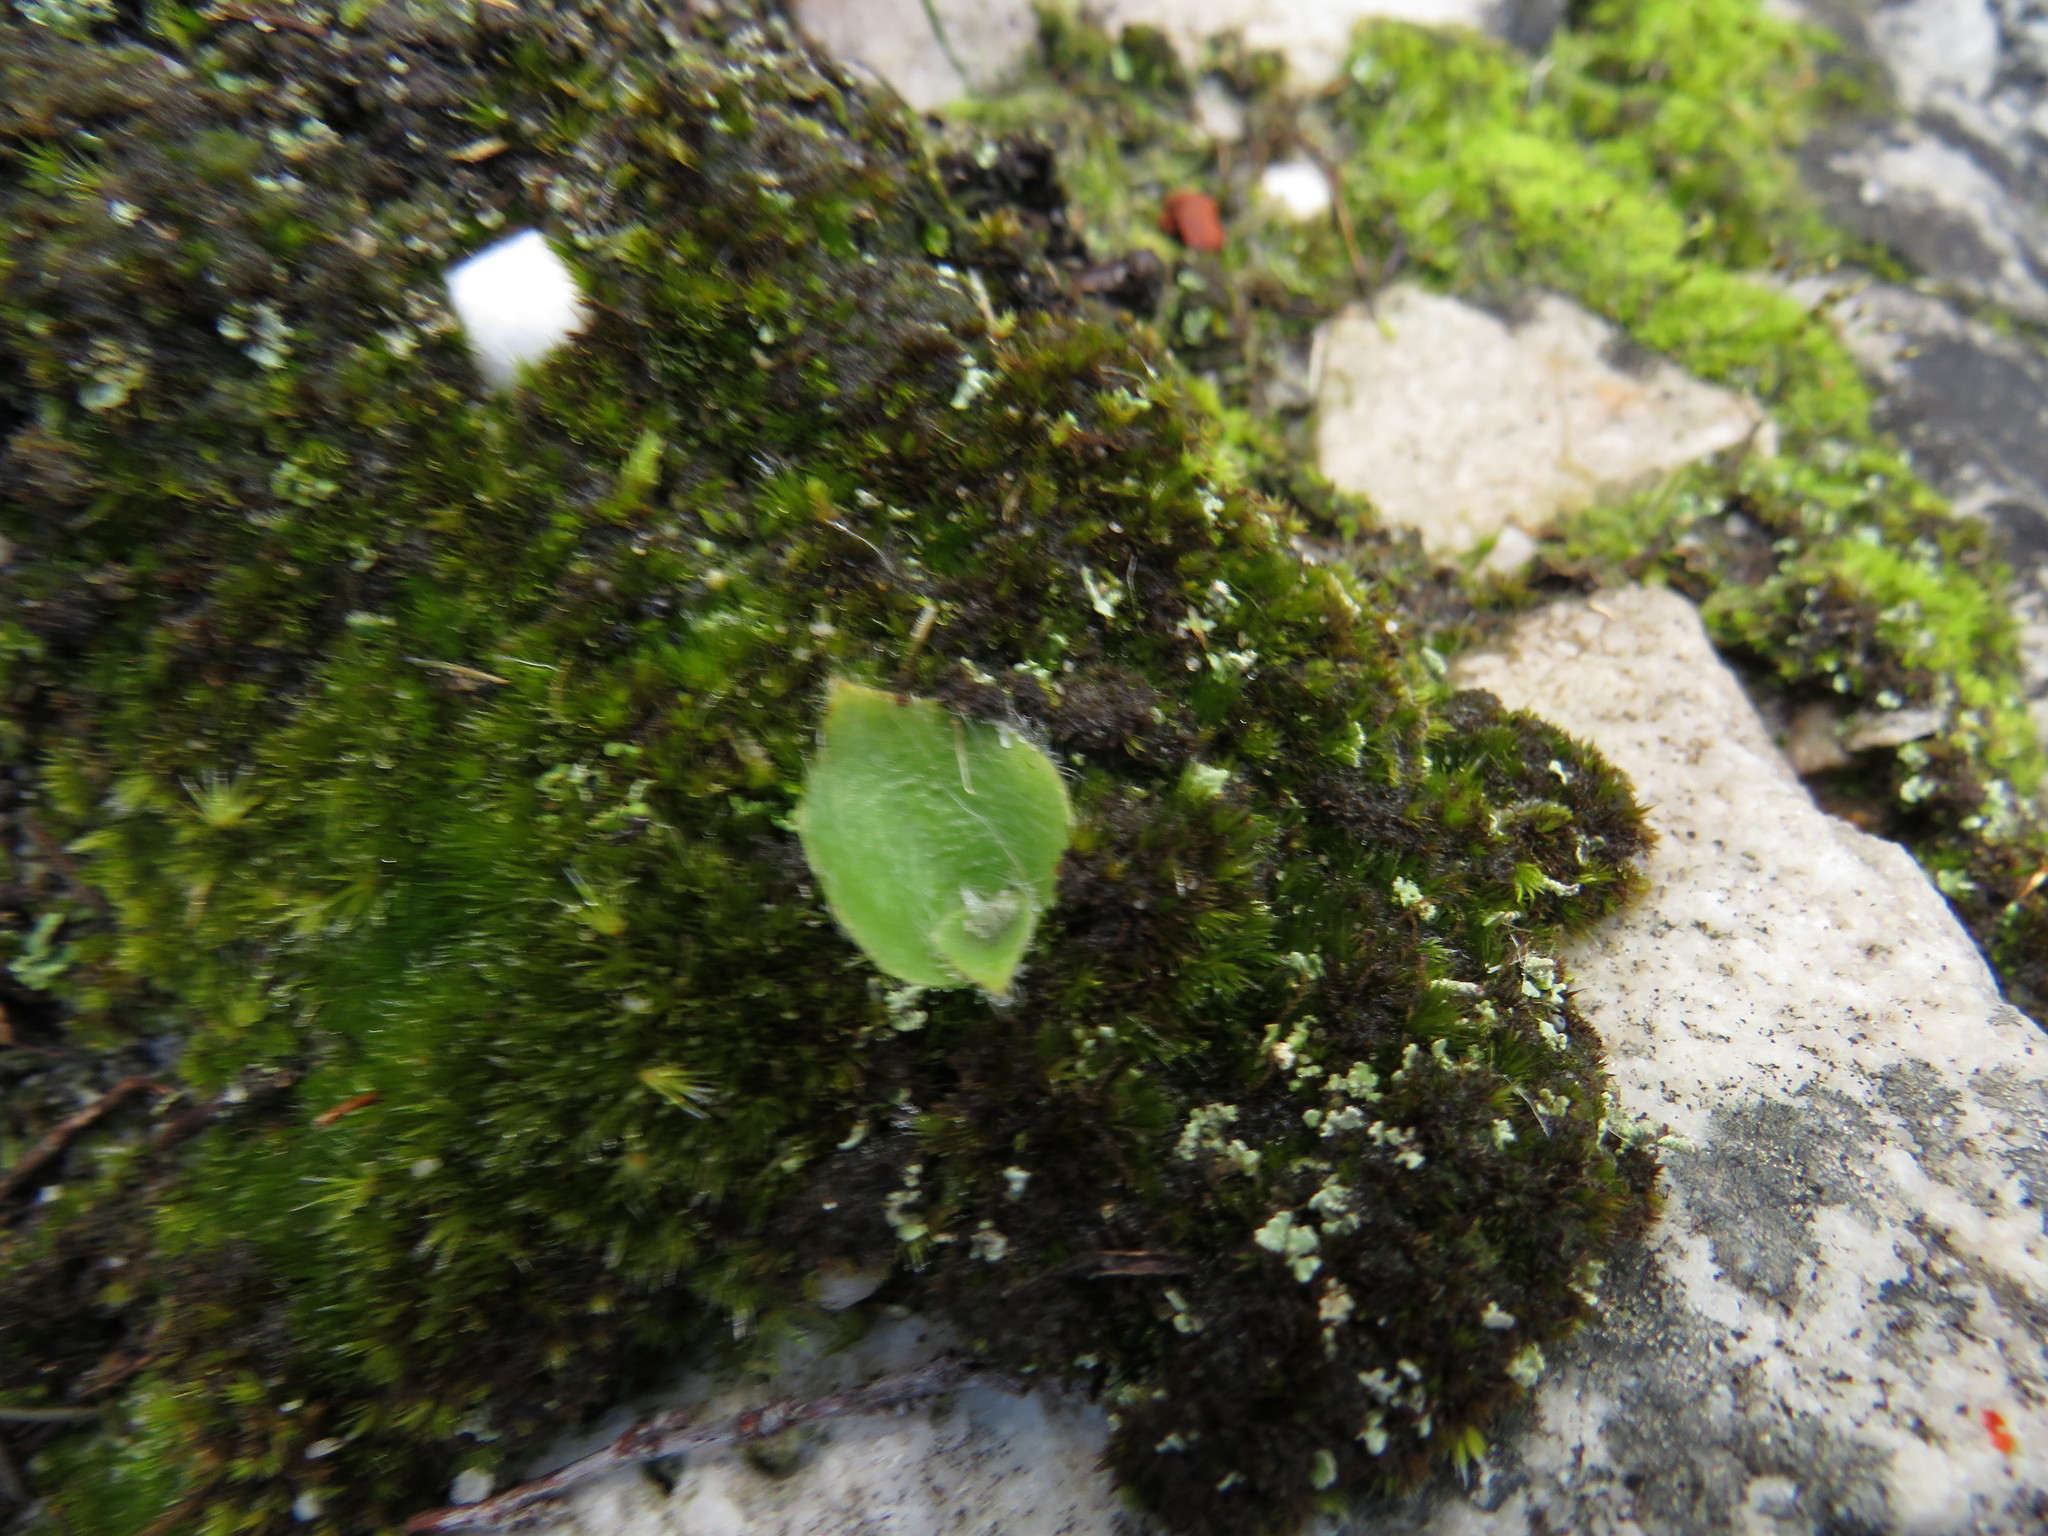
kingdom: Plantae
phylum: Tracheophyta
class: Liliopsida
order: Asparagales
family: Orchidaceae
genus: Holothrix
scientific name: Holothrix villosa
